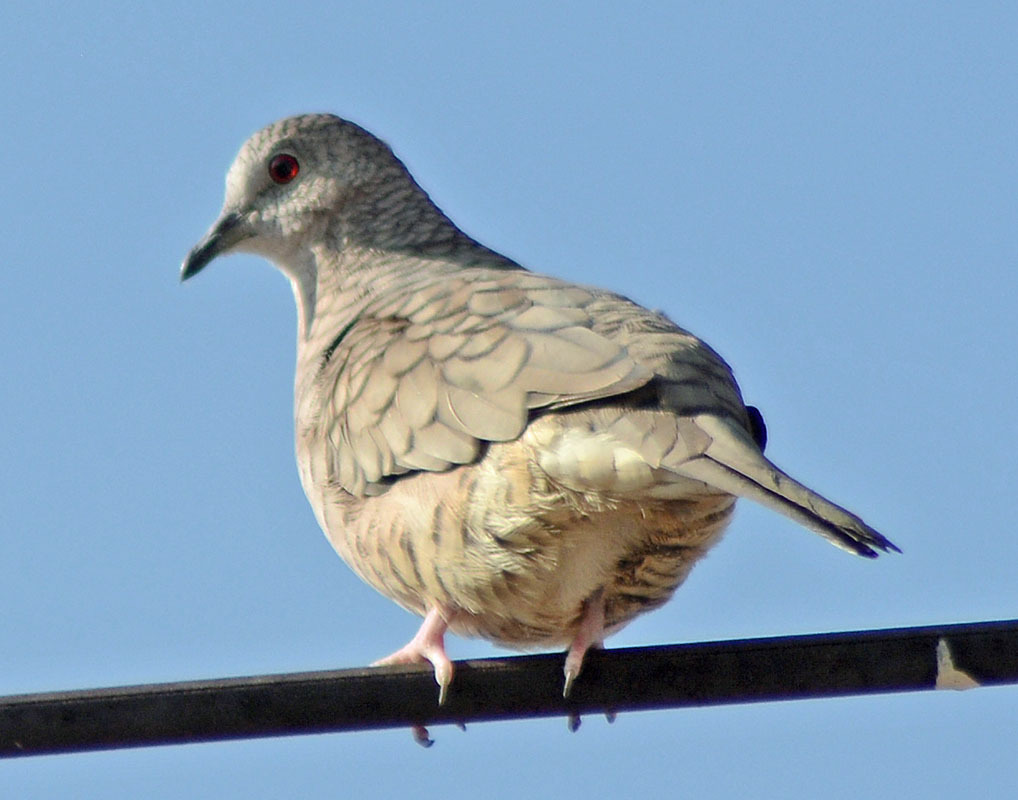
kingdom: Animalia
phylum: Chordata
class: Aves
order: Columbiformes
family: Columbidae
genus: Columbina
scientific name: Columbina inca
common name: Inca dove
